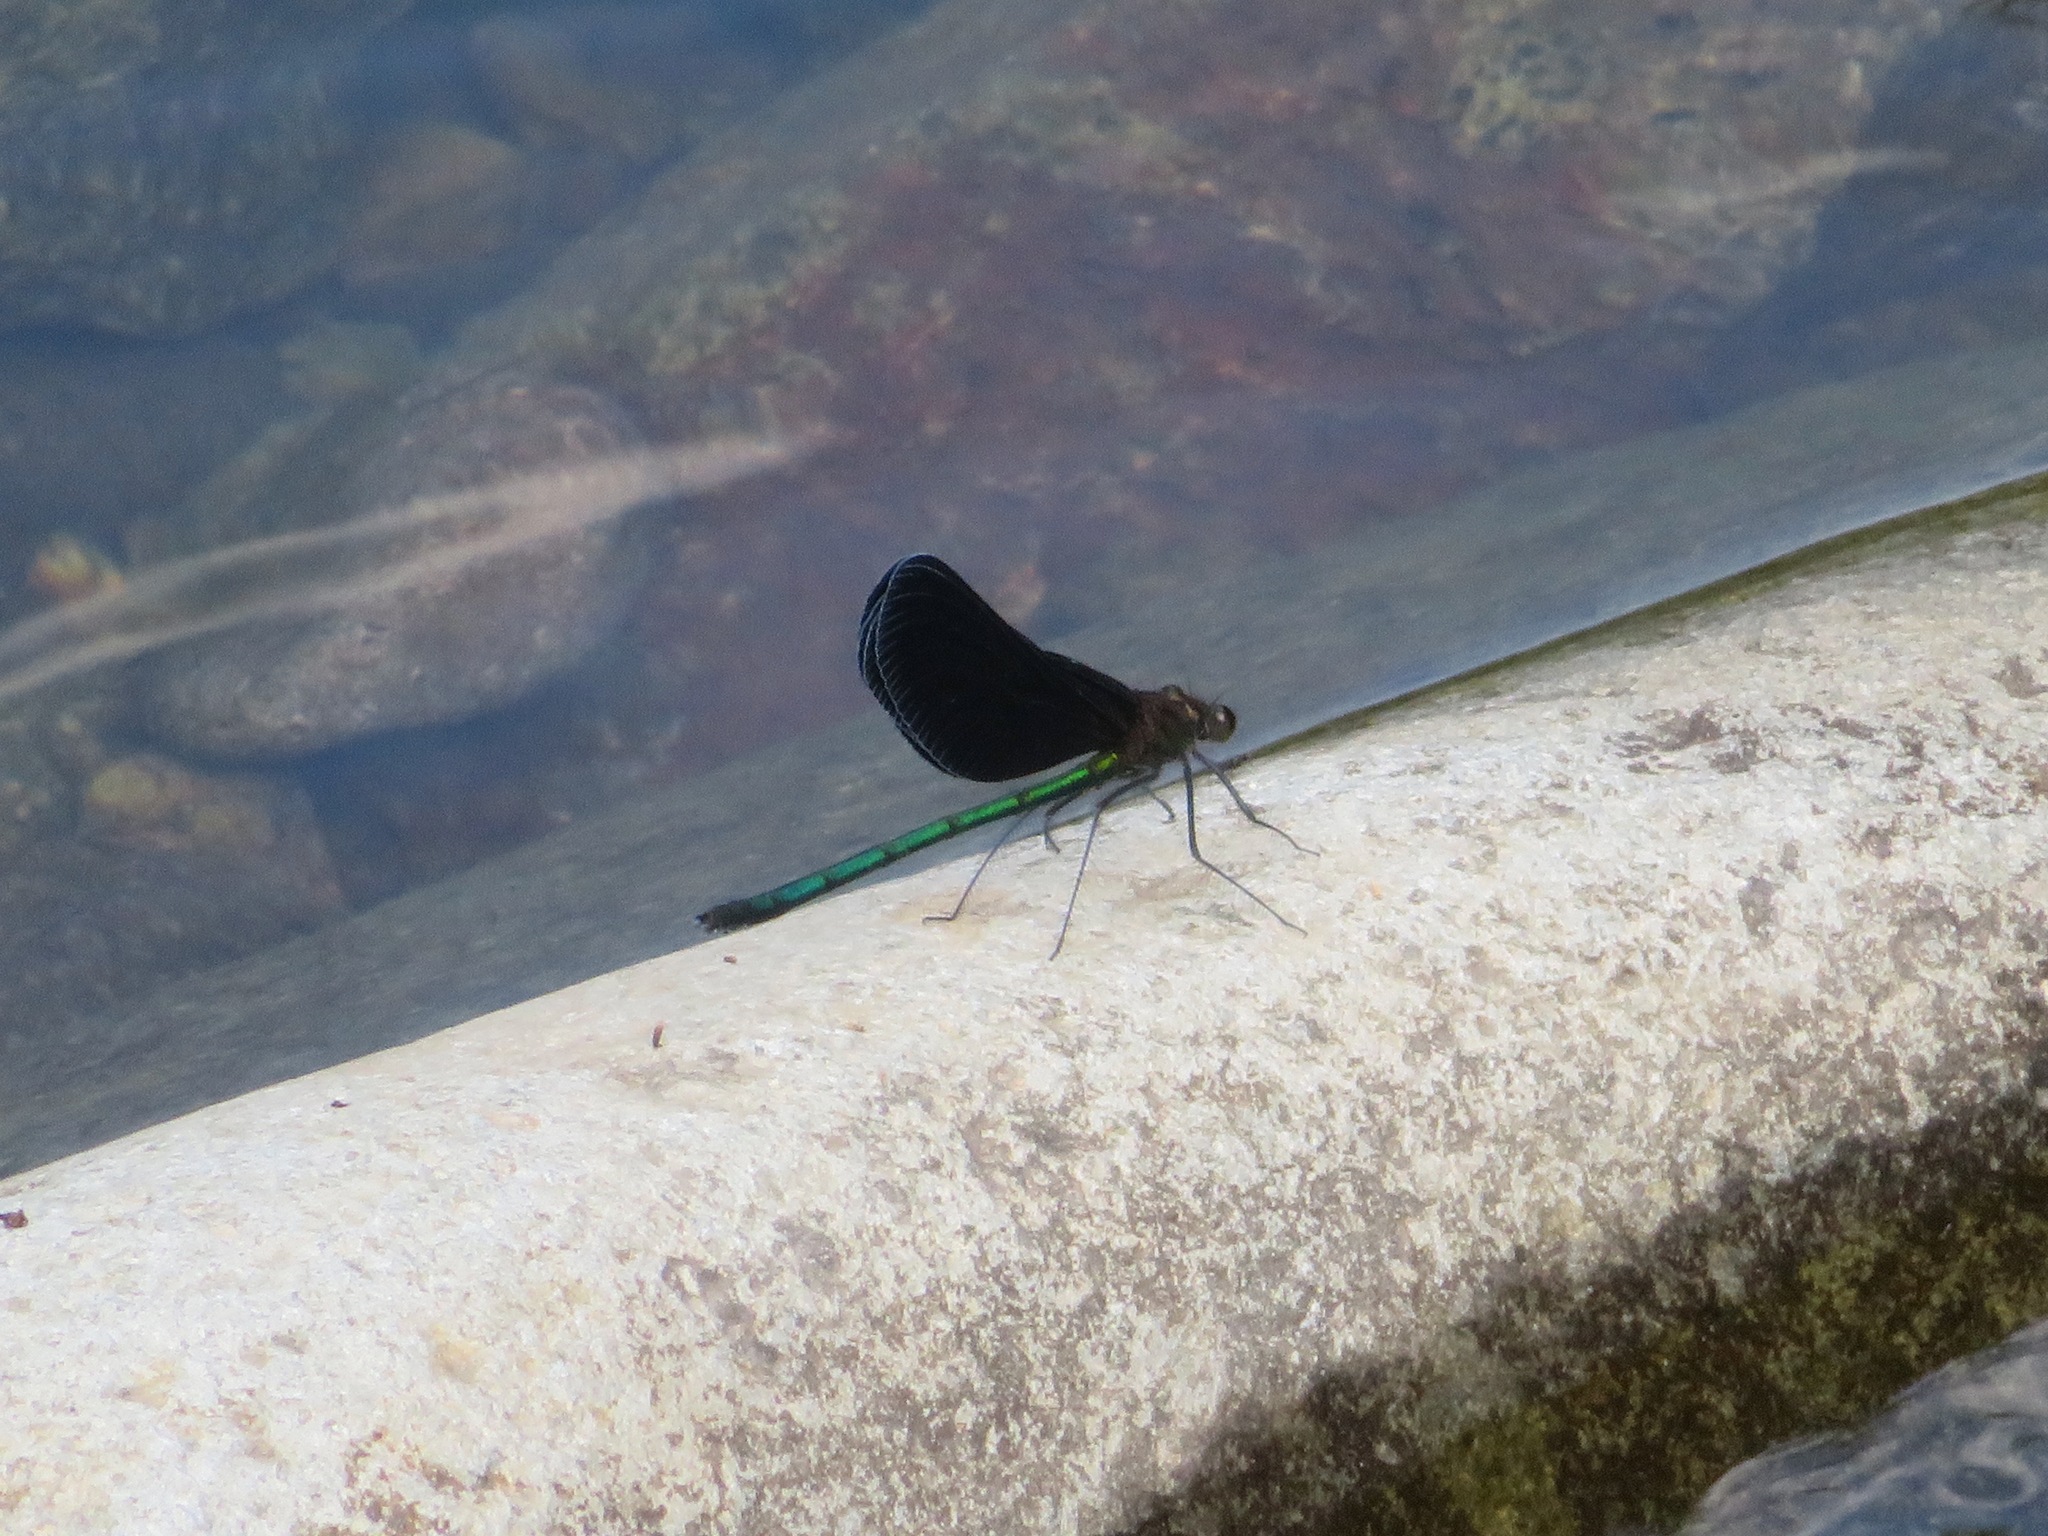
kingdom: Animalia
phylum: Arthropoda
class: Insecta
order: Odonata
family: Calopterygidae
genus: Atrocalopteryx
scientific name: Atrocalopteryx atrata
